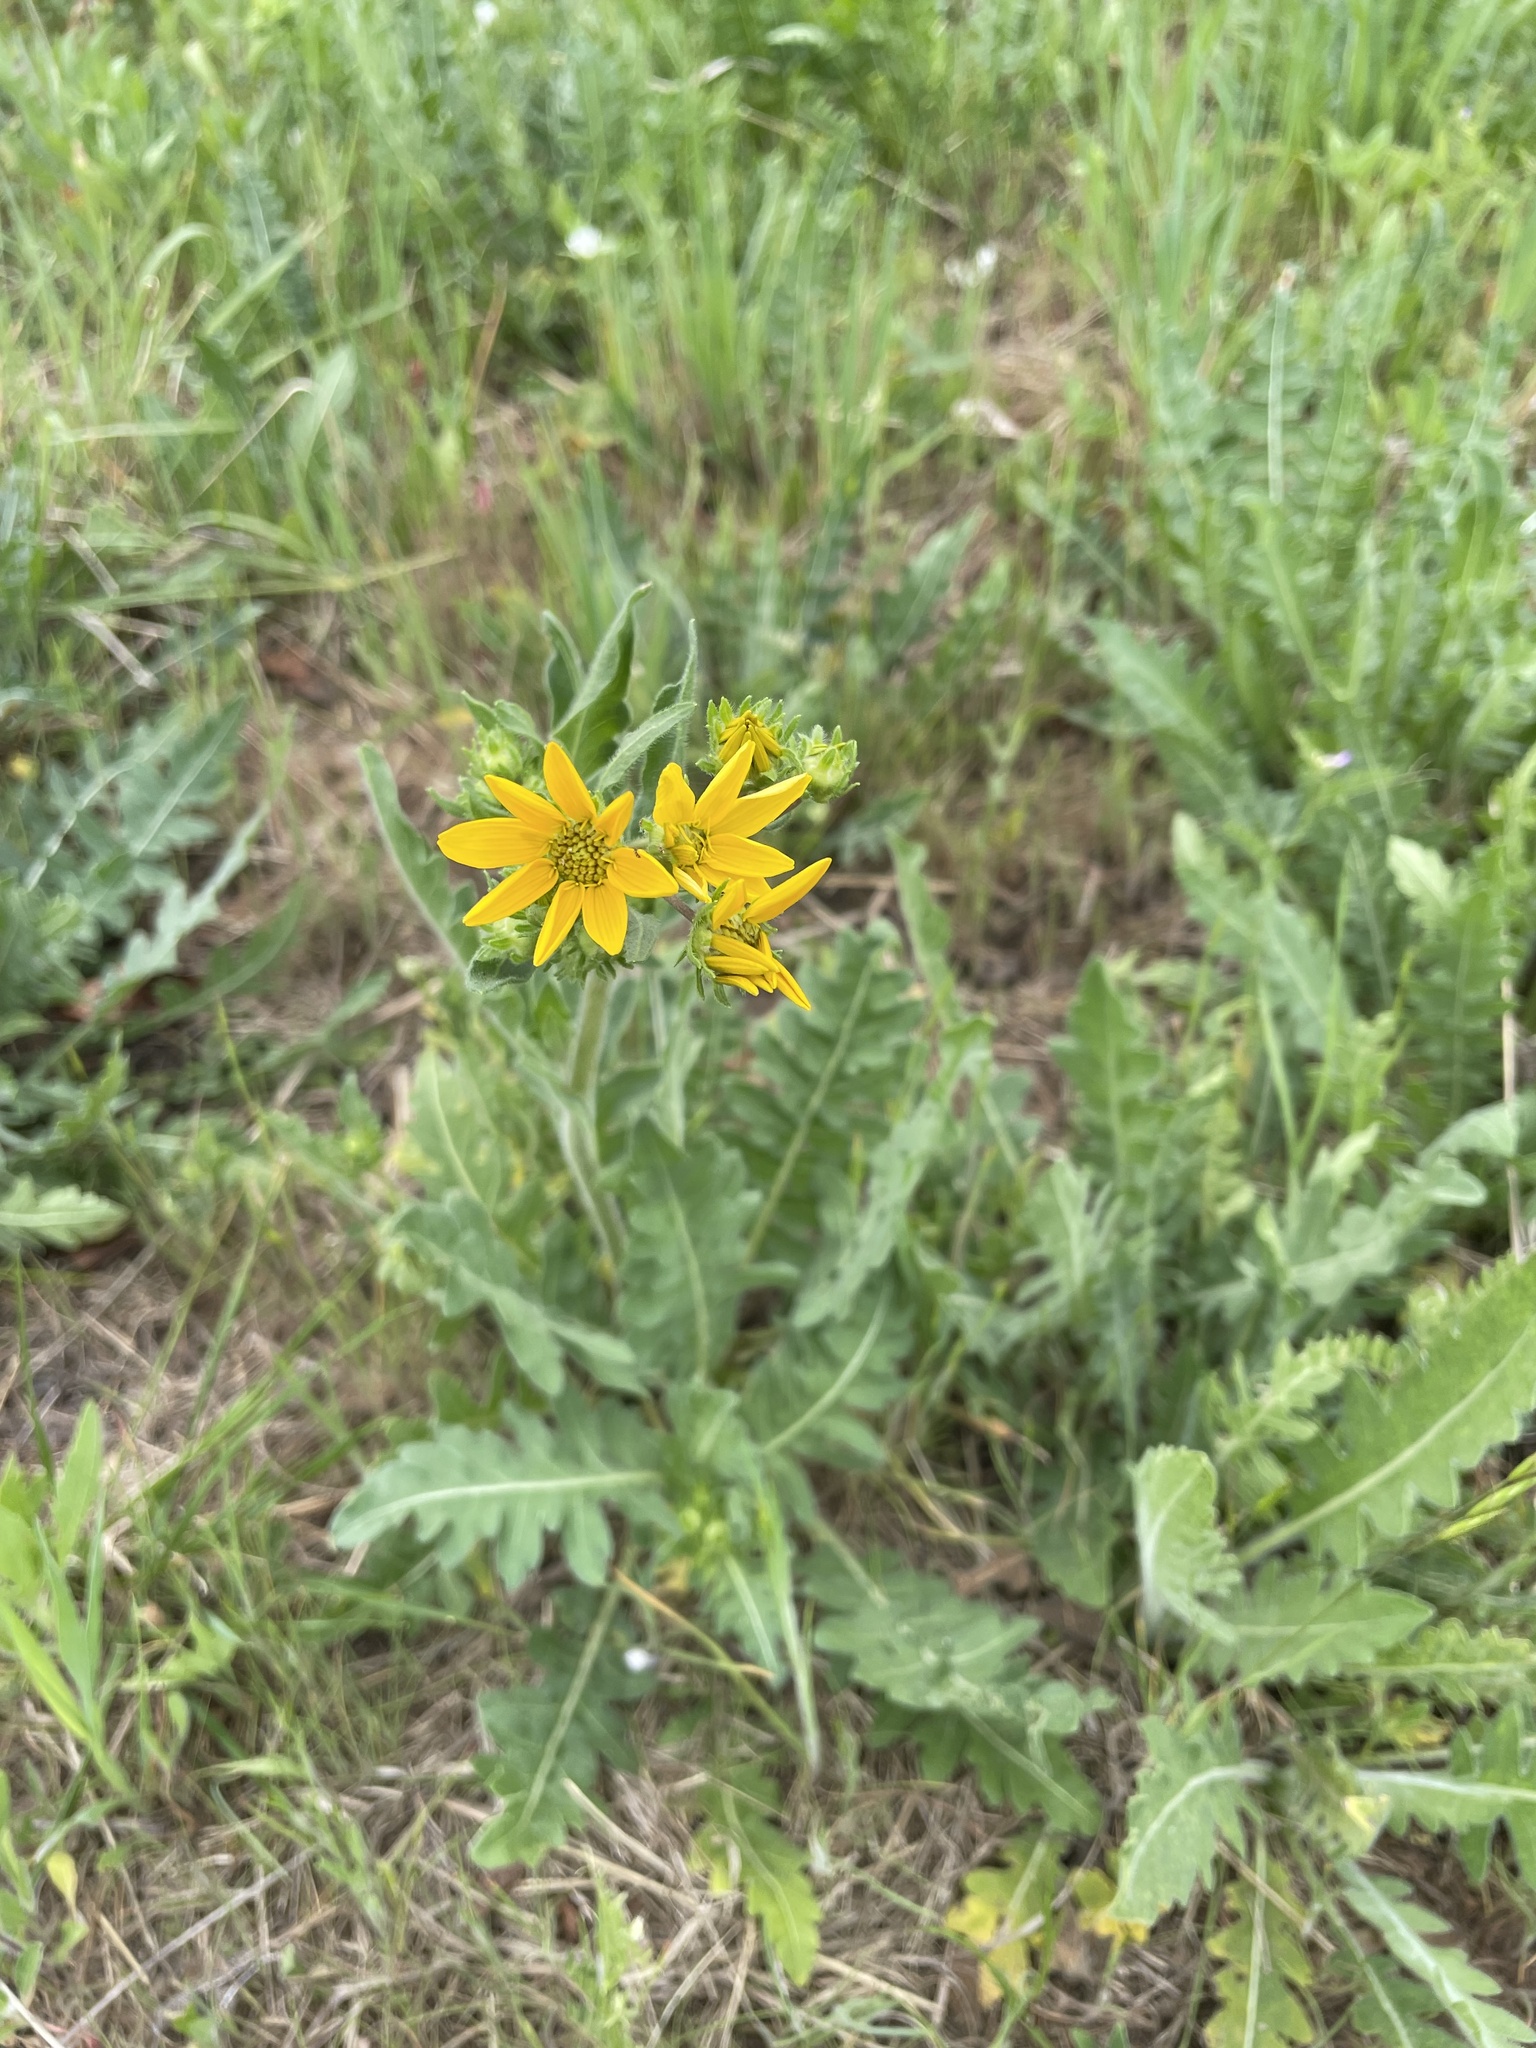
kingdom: Plantae
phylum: Tracheophyta
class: Magnoliopsida
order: Asterales
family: Asteraceae
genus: Engelmannia
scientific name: Engelmannia peristenia
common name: Engelmann's daisy
